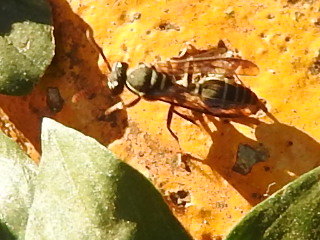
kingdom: Animalia
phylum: Arthropoda
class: Insecta
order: Hymenoptera
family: Vespidae
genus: Myrapetra
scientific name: Myrapetra
